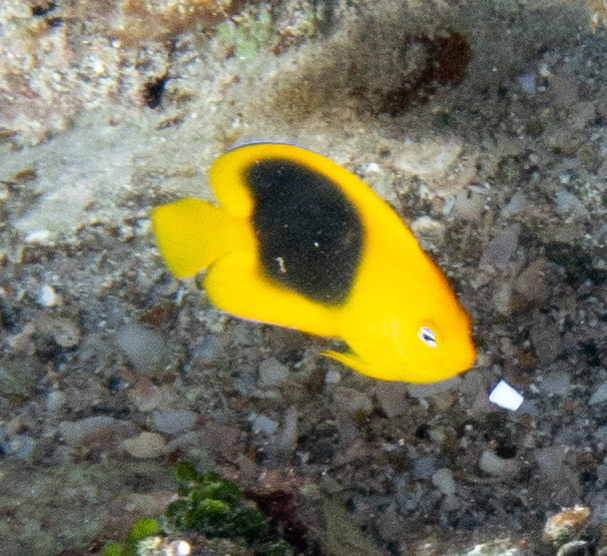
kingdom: Animalia
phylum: Chordata
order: Perciformes
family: Pomacanthidae
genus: Holacanthus
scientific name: Holacanthus tricolor
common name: Rock beauty
